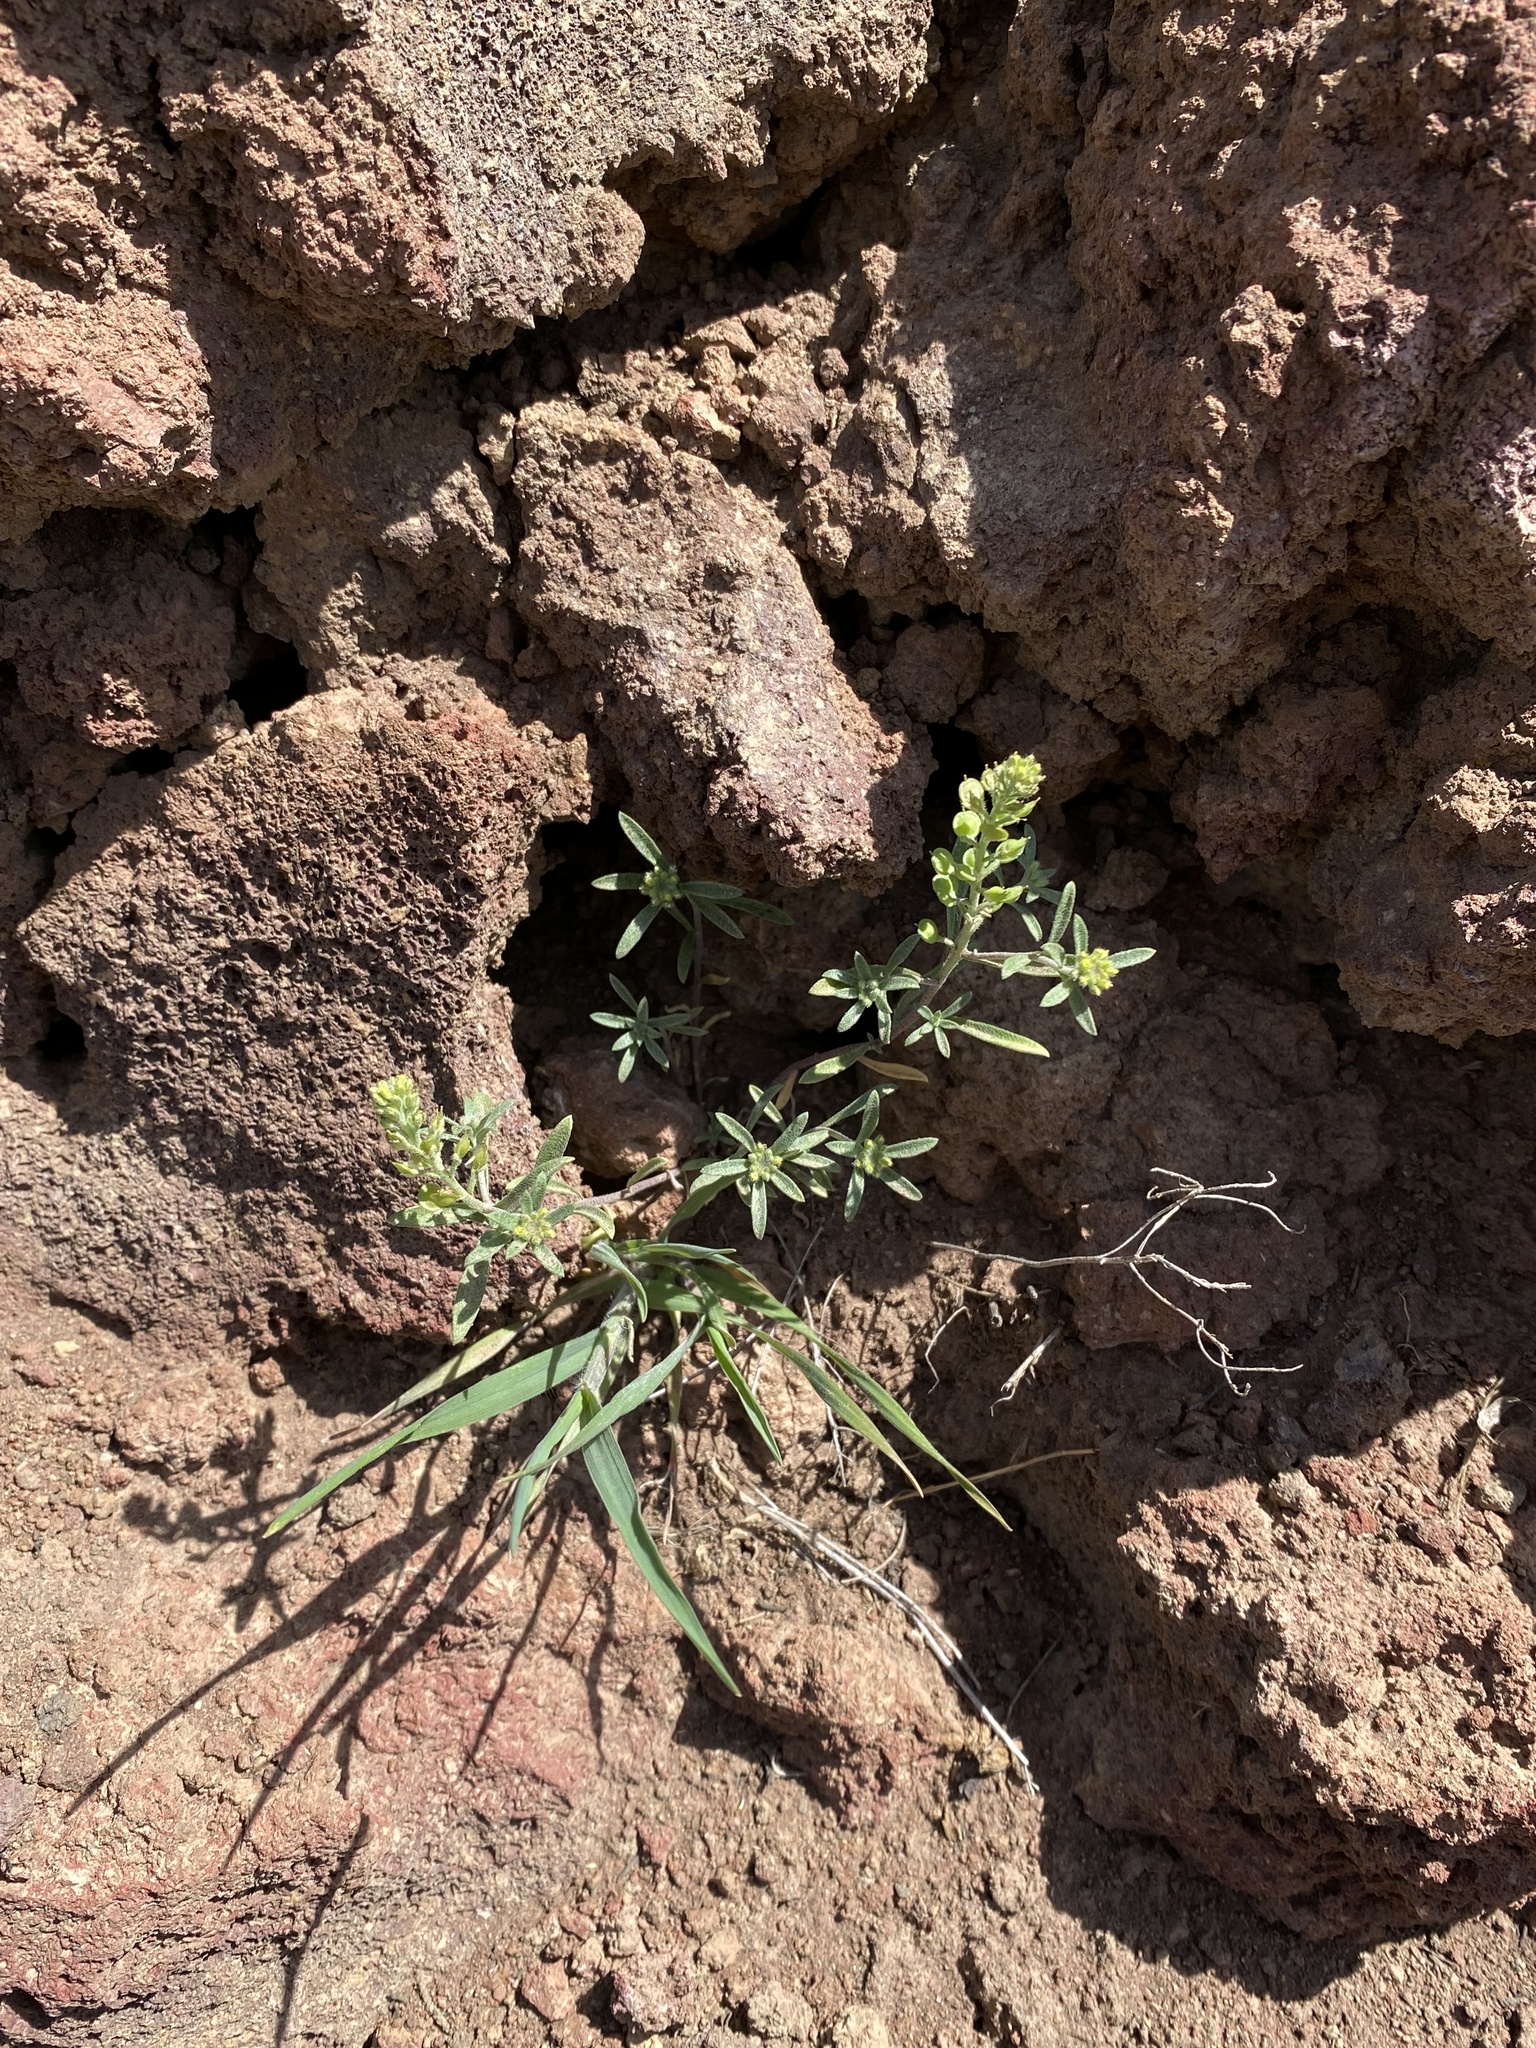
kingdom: Plantae
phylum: Tracheophyta
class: Magnoliopsida
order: Brassicales
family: Brassicaceae
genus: Alyssum
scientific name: Alyssum alyssoides
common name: Small alison
